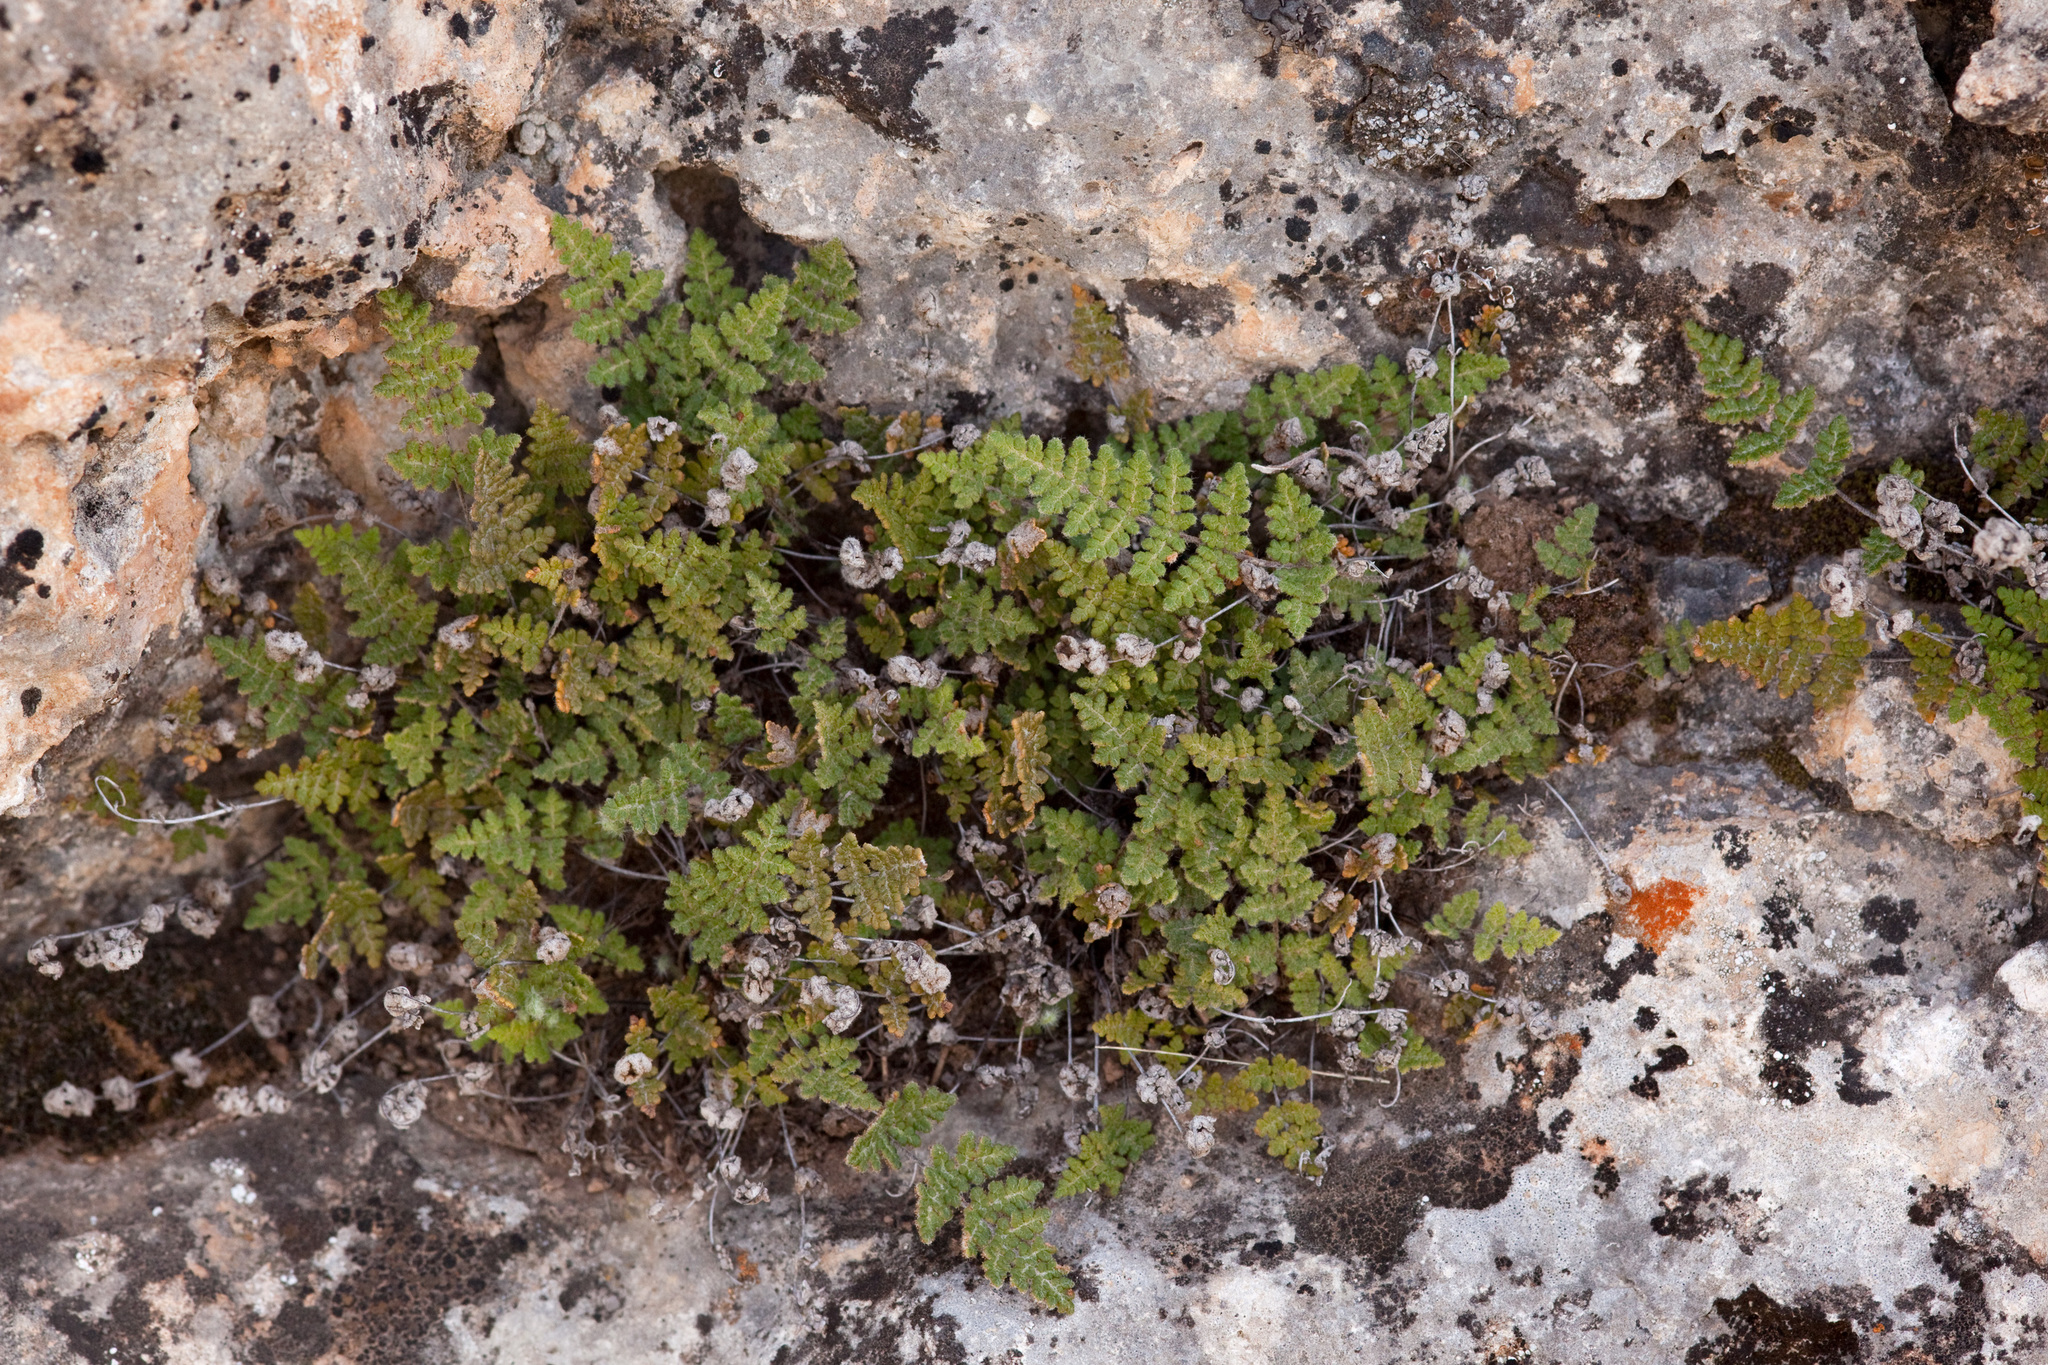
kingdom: Plantae
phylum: Tracheophyta
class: Polypodiopsida
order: Polypodiales
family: Pteridaceae
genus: Myriopteris
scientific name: Myriopteris gracilis
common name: Fee's lip fern
